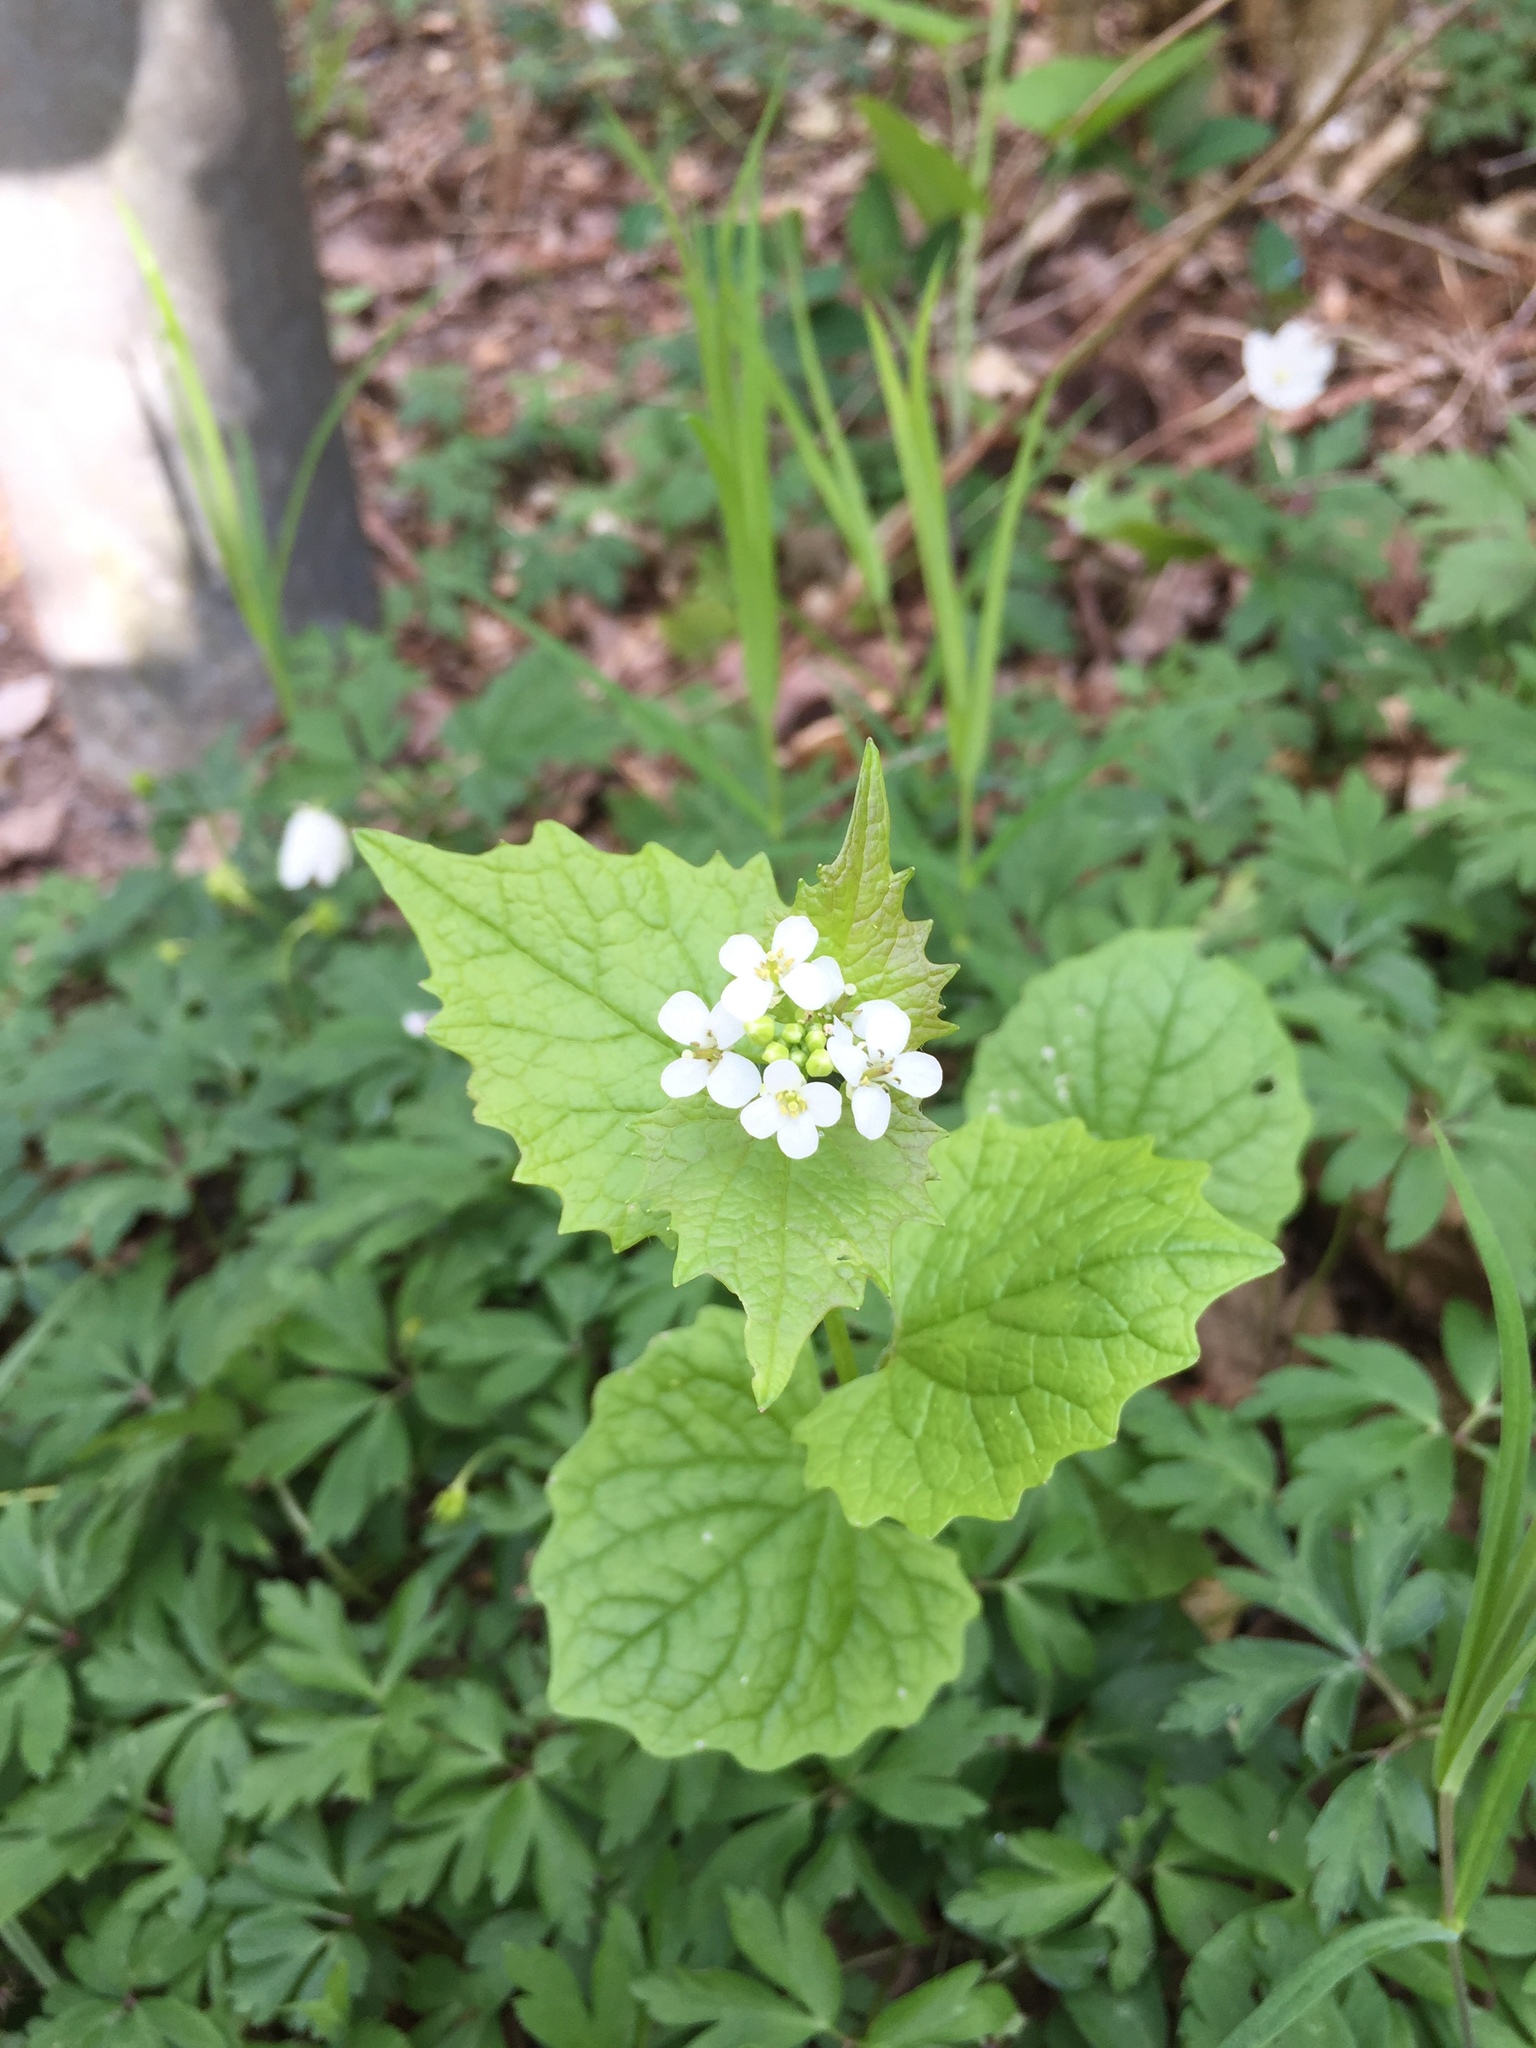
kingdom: Plantae
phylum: Tracheophyta
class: Magnoliopsida
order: Brassicales
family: Brassicaceae
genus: Alliaria
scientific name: Alliaria petiolata
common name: Garlic mustard
